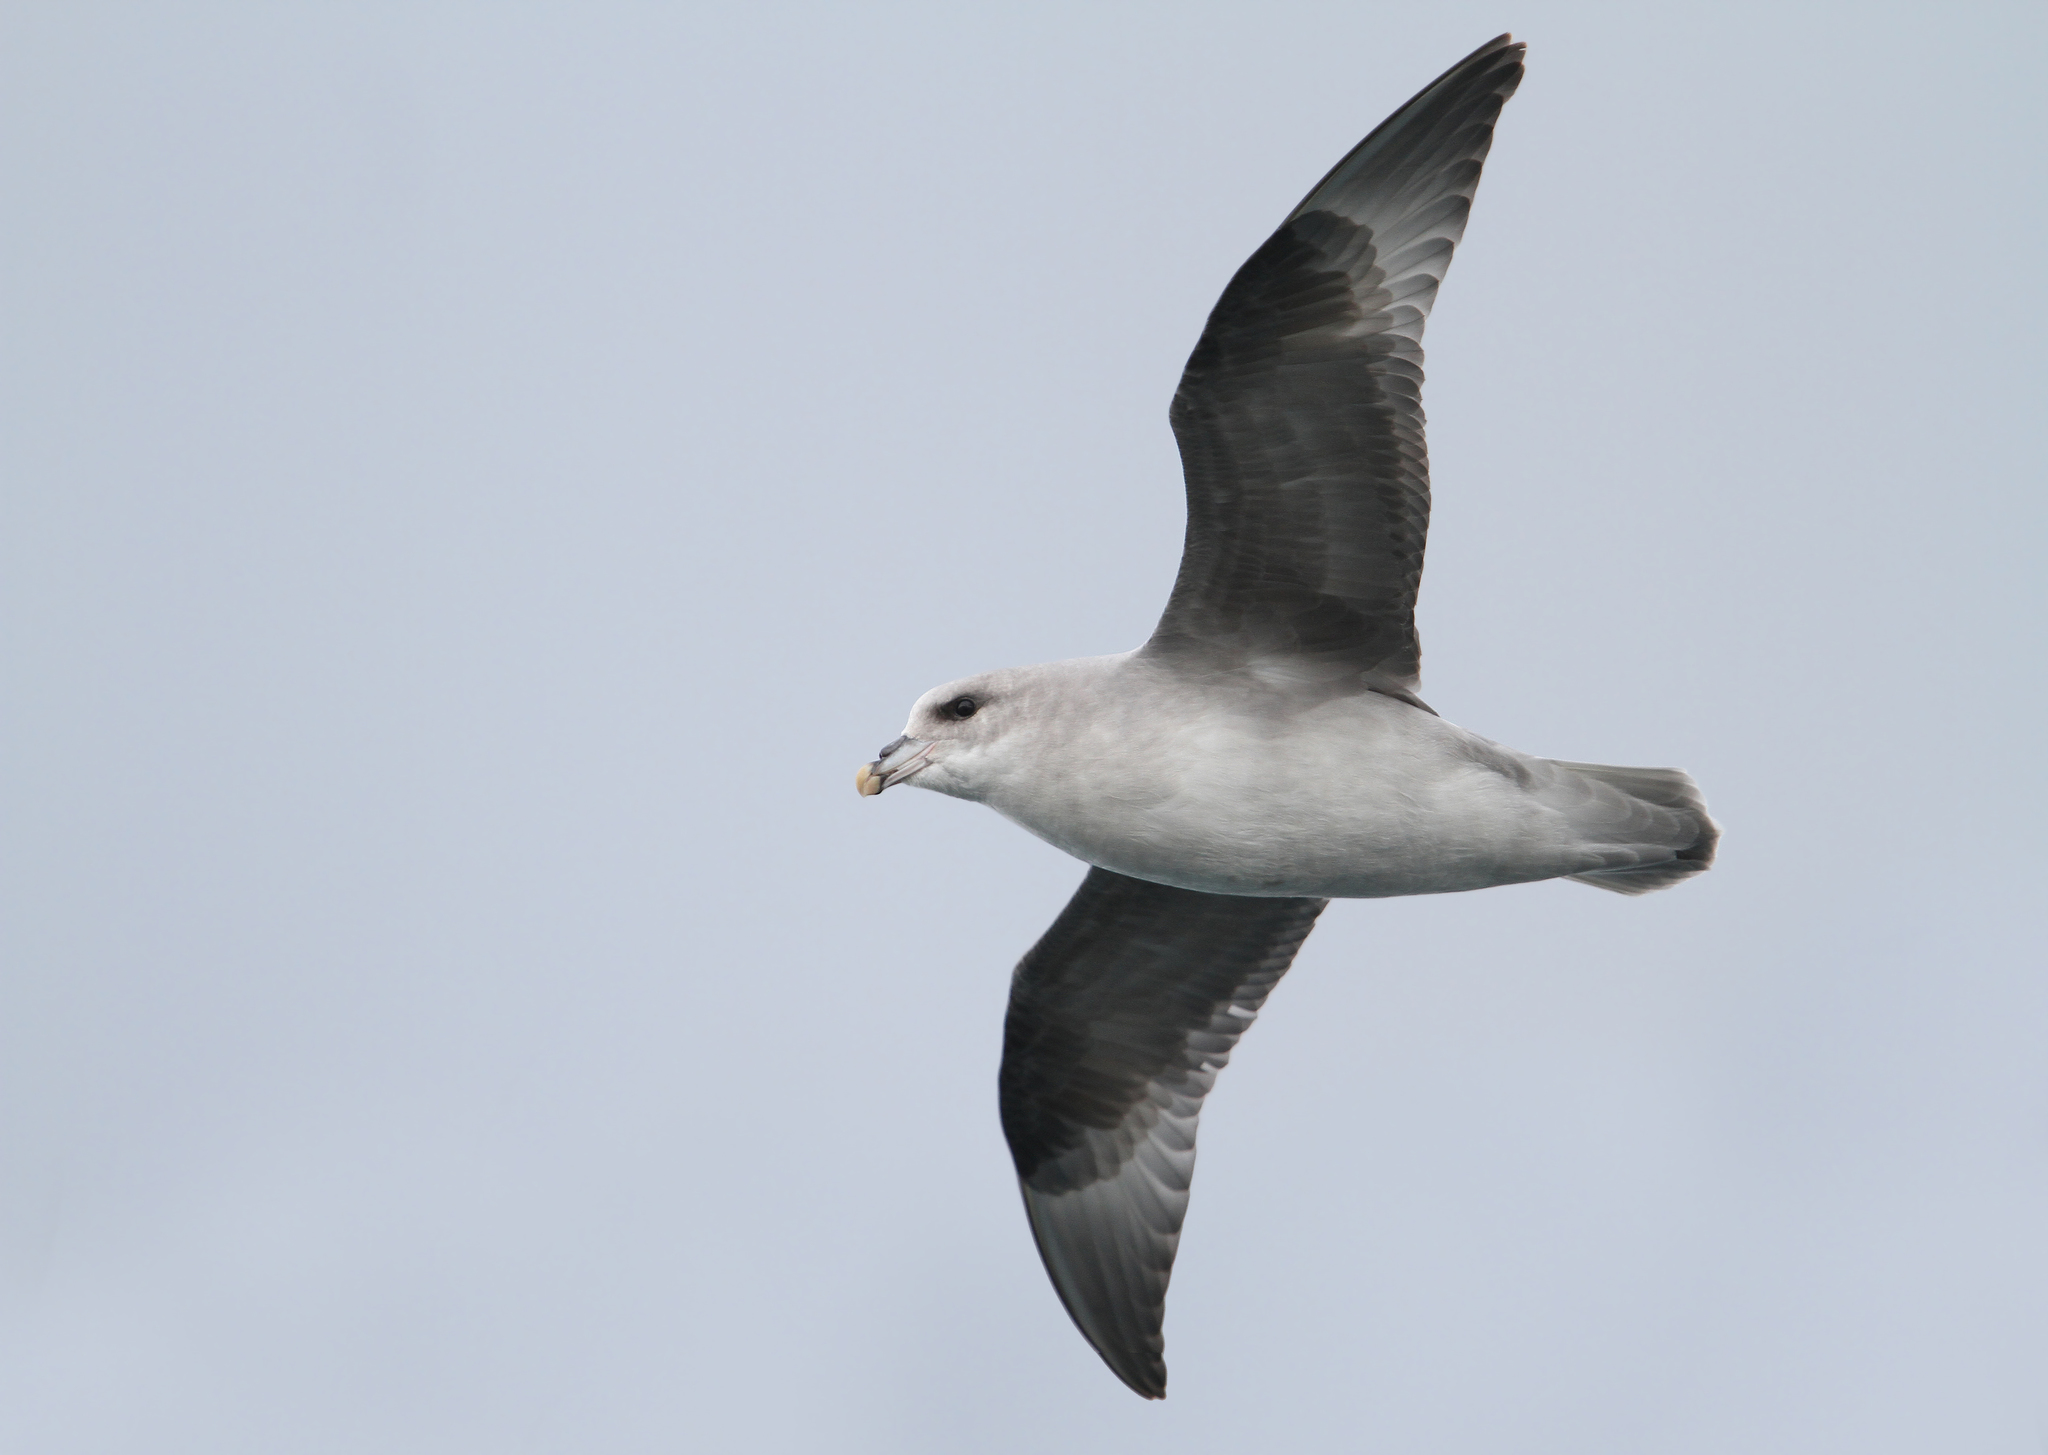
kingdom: Animalia
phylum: Chordata
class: Aves
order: Procellariiformes
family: Procellariidae
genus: Fulmarus
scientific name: Fulmarus glacialis
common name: Northern fulmar
